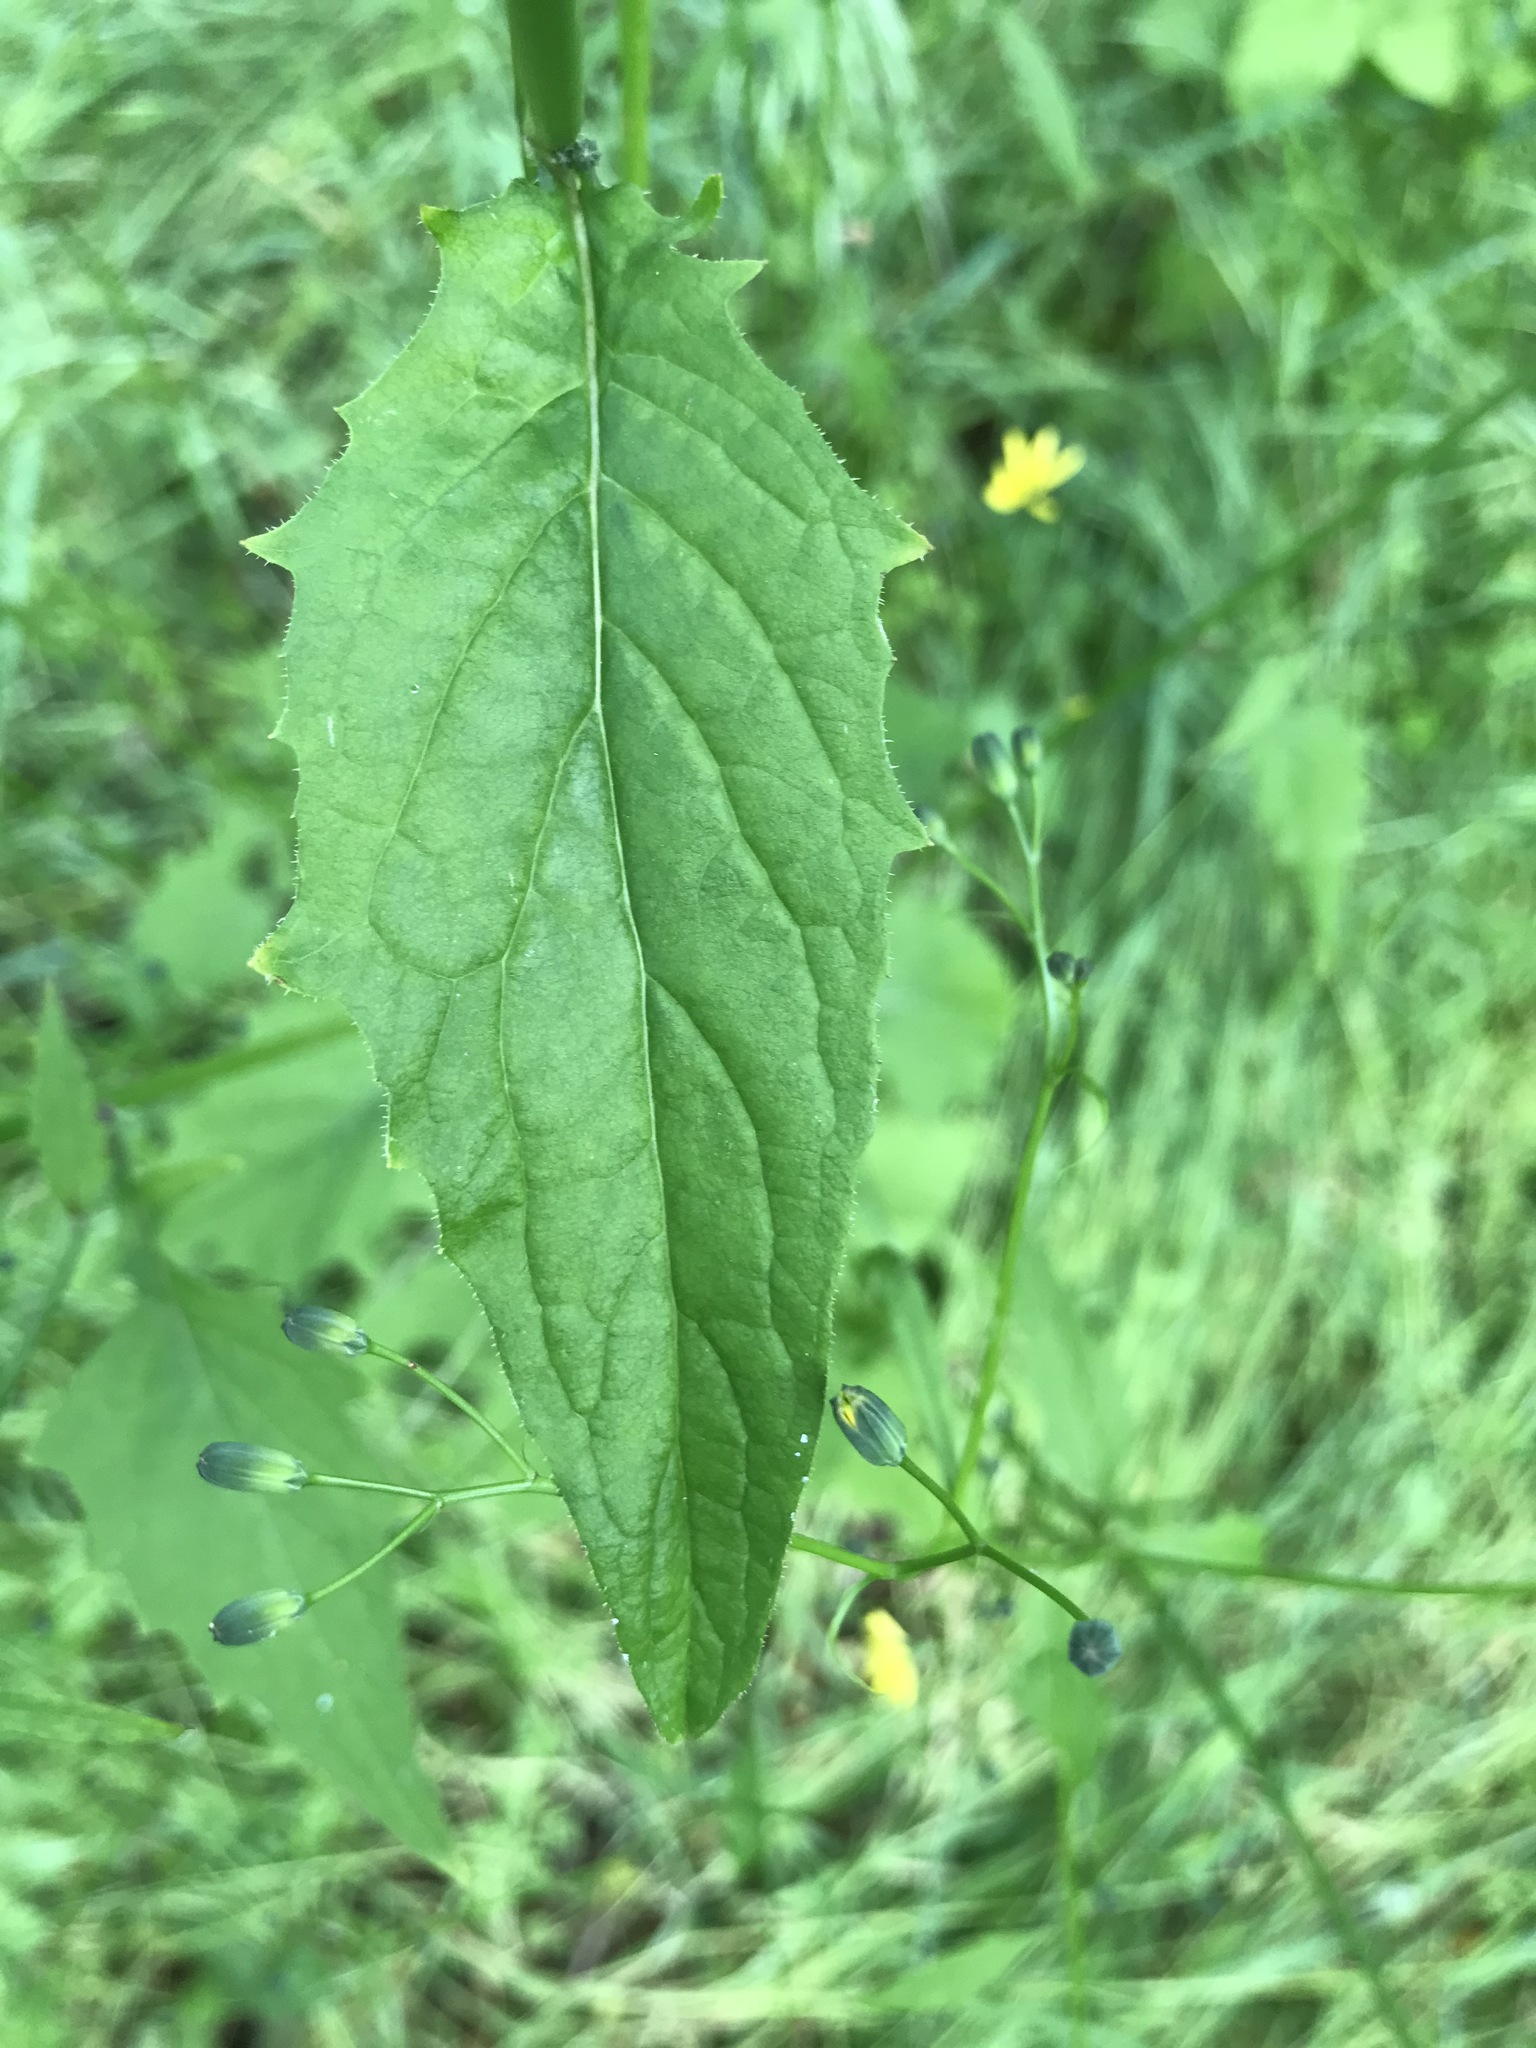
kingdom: Plantae
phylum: Tracheophyta
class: Magnoliopsida
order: Asterales
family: Asteraceae
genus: Lapsana
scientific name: Lapsana communis
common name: Nipplewort
